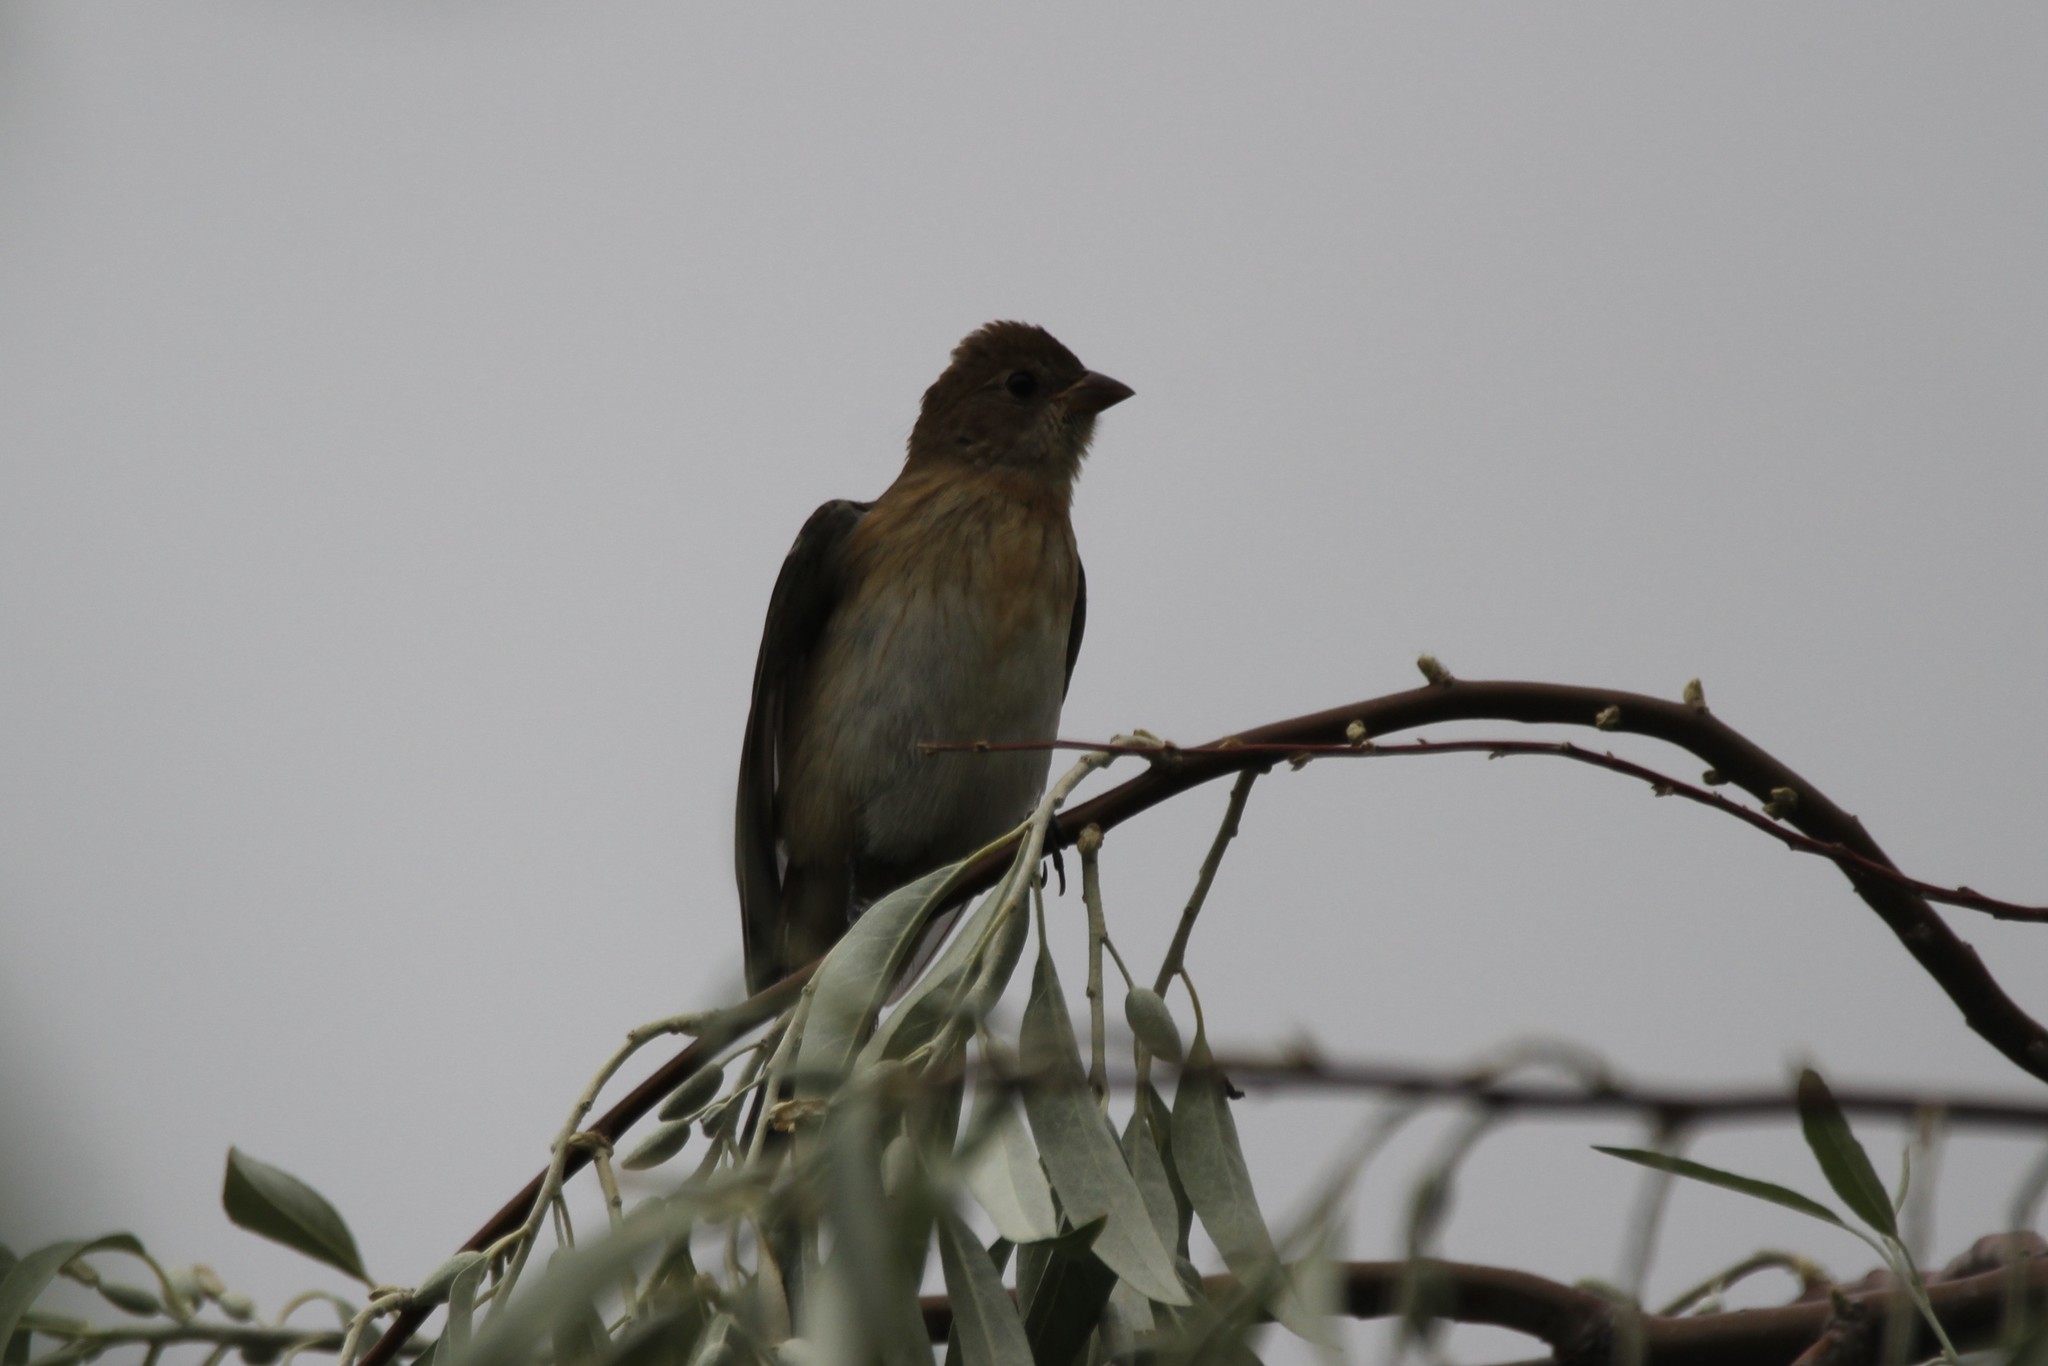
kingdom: Animalia
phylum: Chordata
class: Aves
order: Passeriformes
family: Cardinalidae
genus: Passerina
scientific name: Passerina amoena
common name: Lazuli bunting
